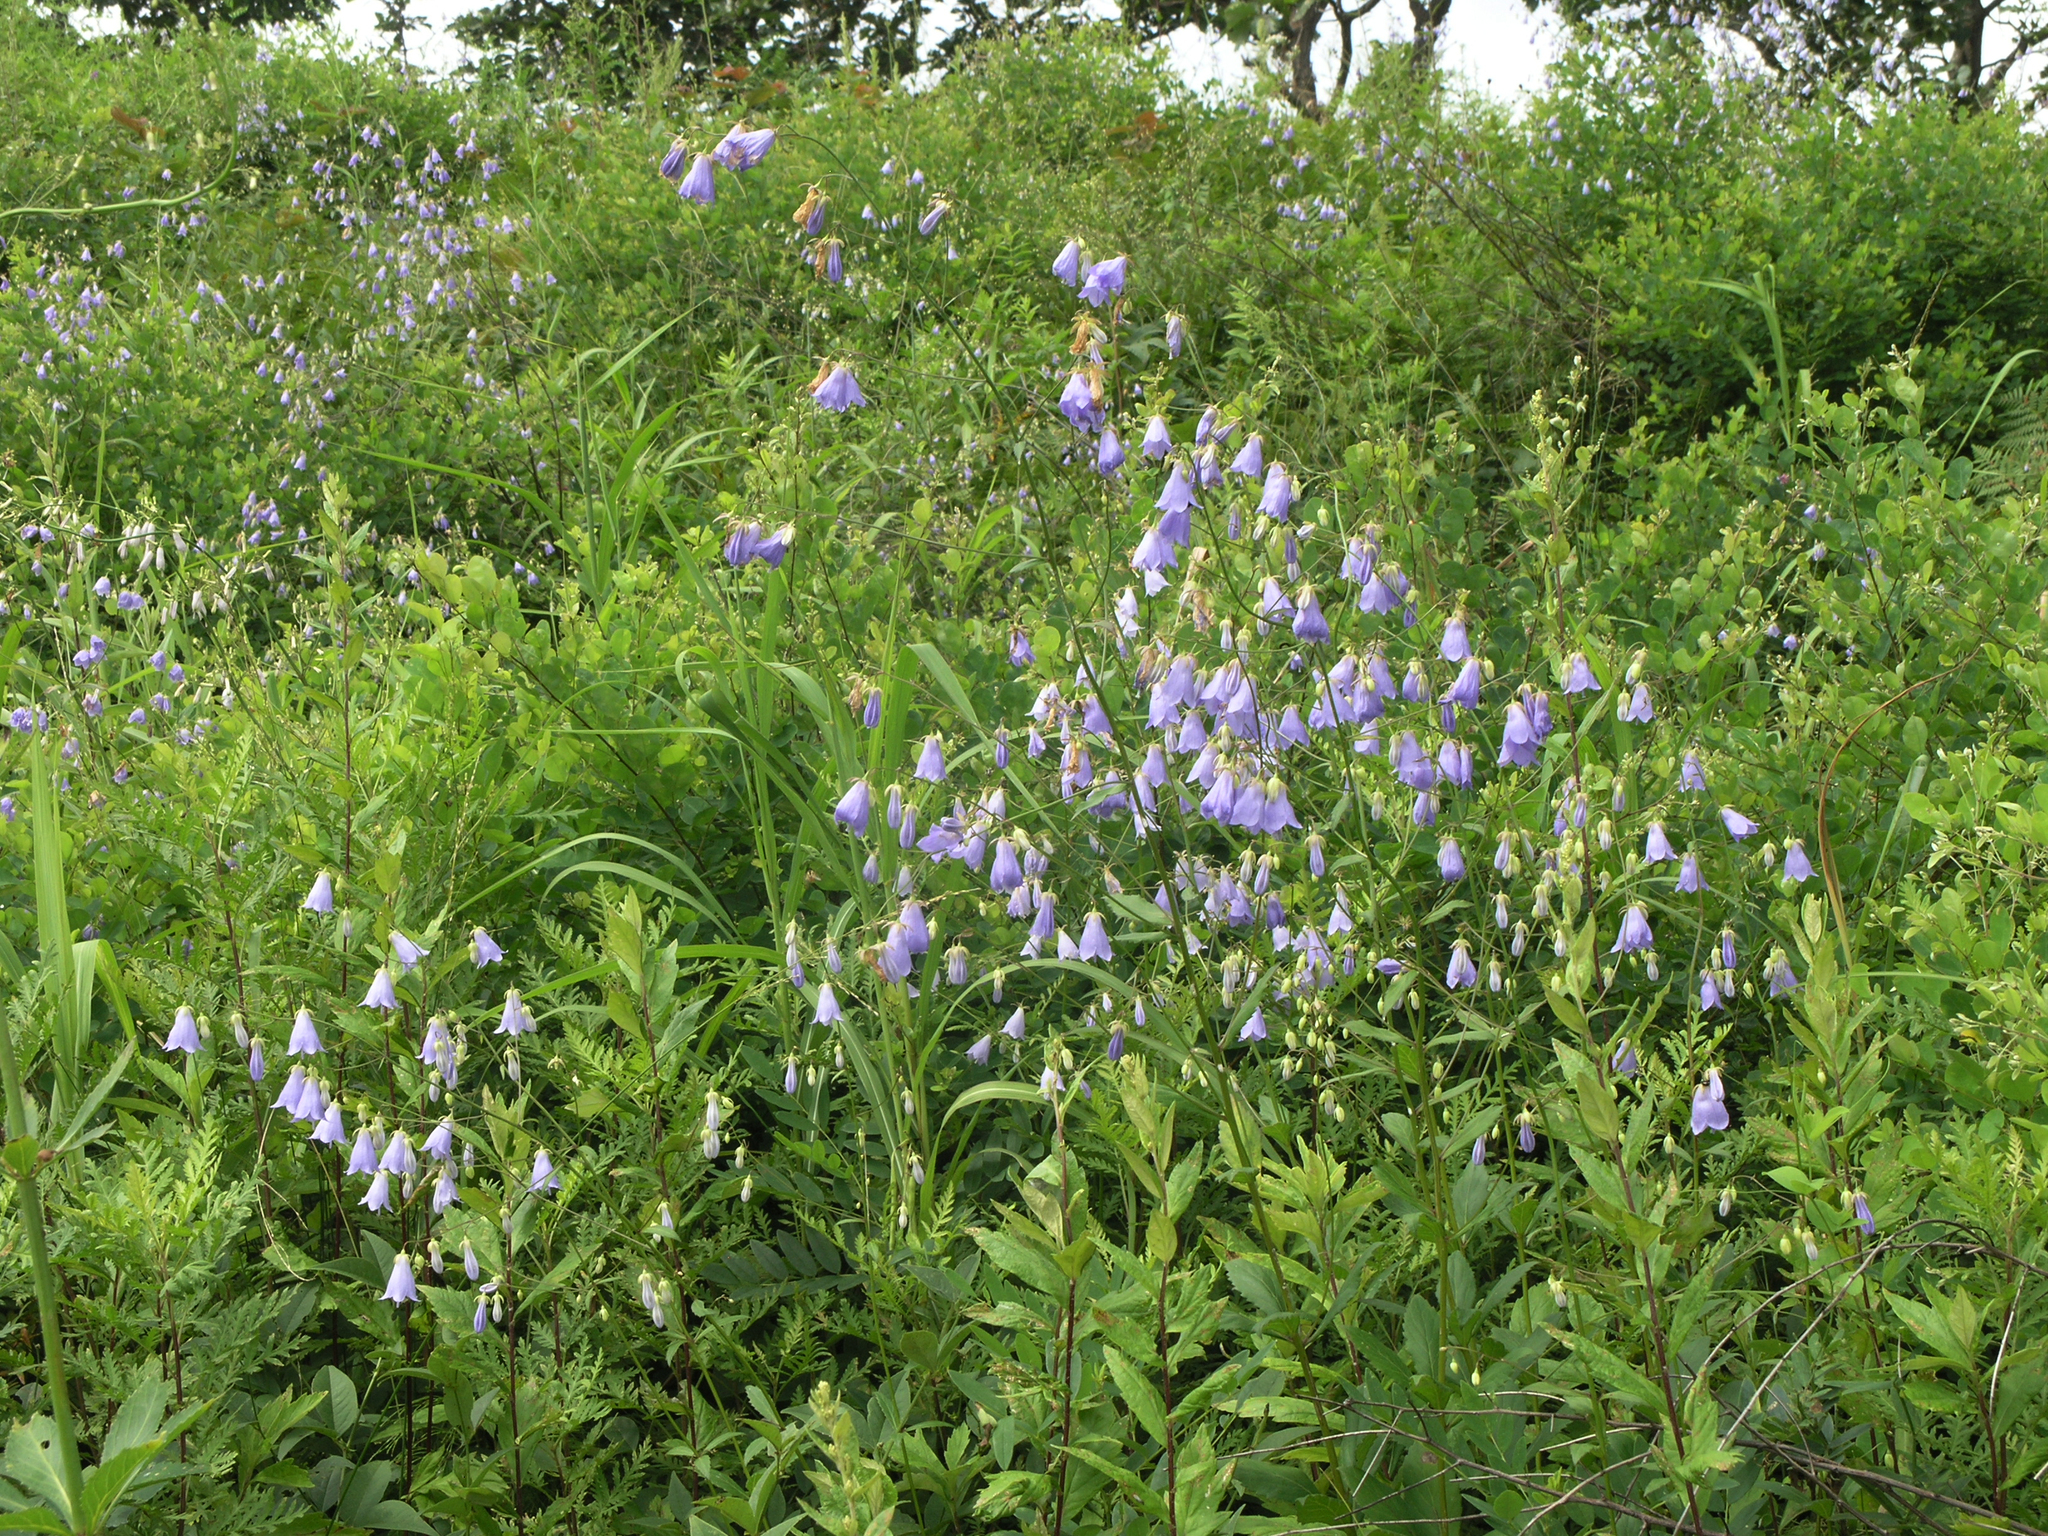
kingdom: Plantae
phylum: Tracheophyta
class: Magnoliopsida
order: Asterales
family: Campanulaceae
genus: Adenophora
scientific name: Adenophora divaricata
